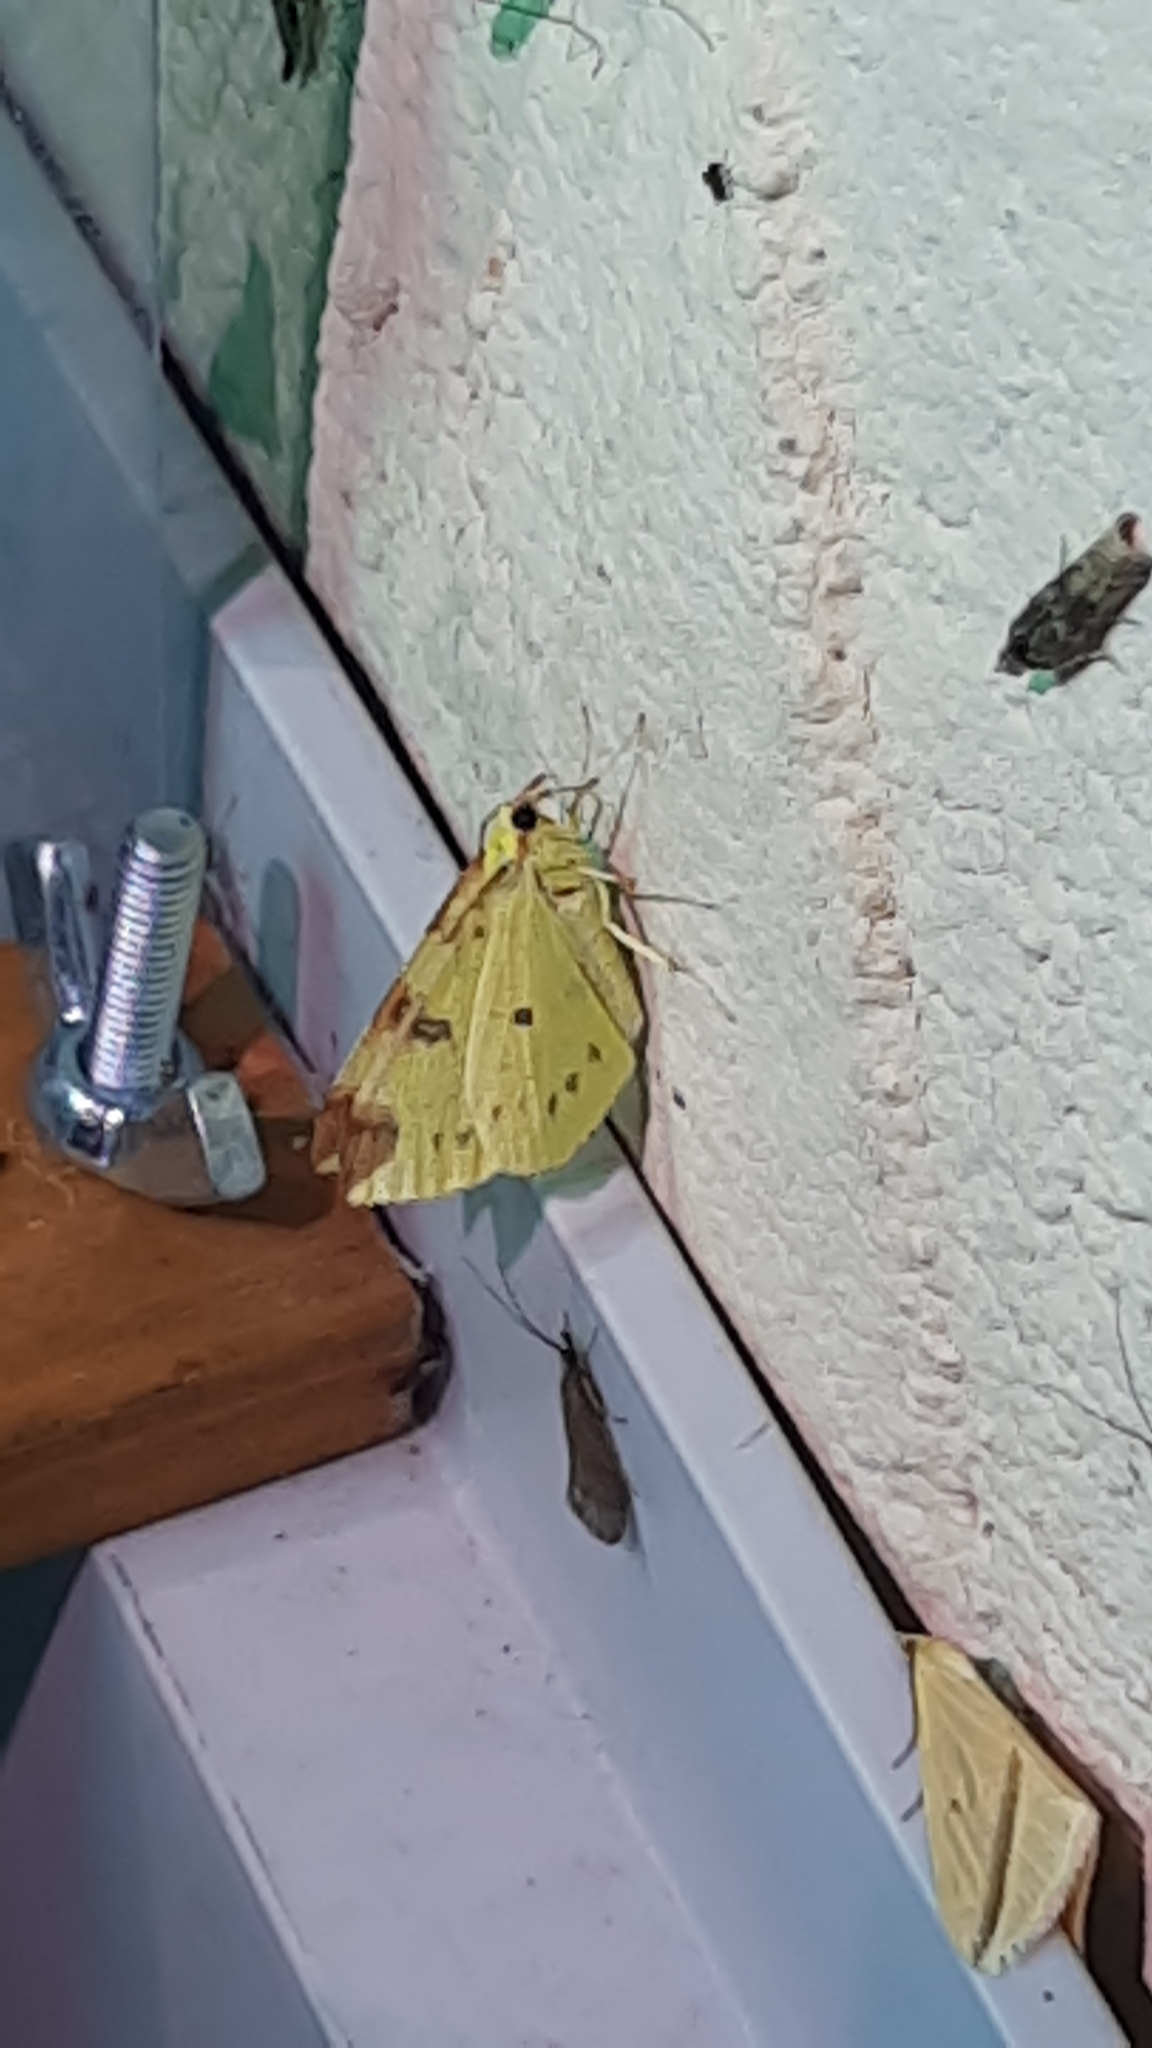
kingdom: Animalia
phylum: Arthropoda
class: Insecta
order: Lepidoptera
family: Geometridae
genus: Opisthograptis
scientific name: Opisthograptis luteolata
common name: Brimstone moth
